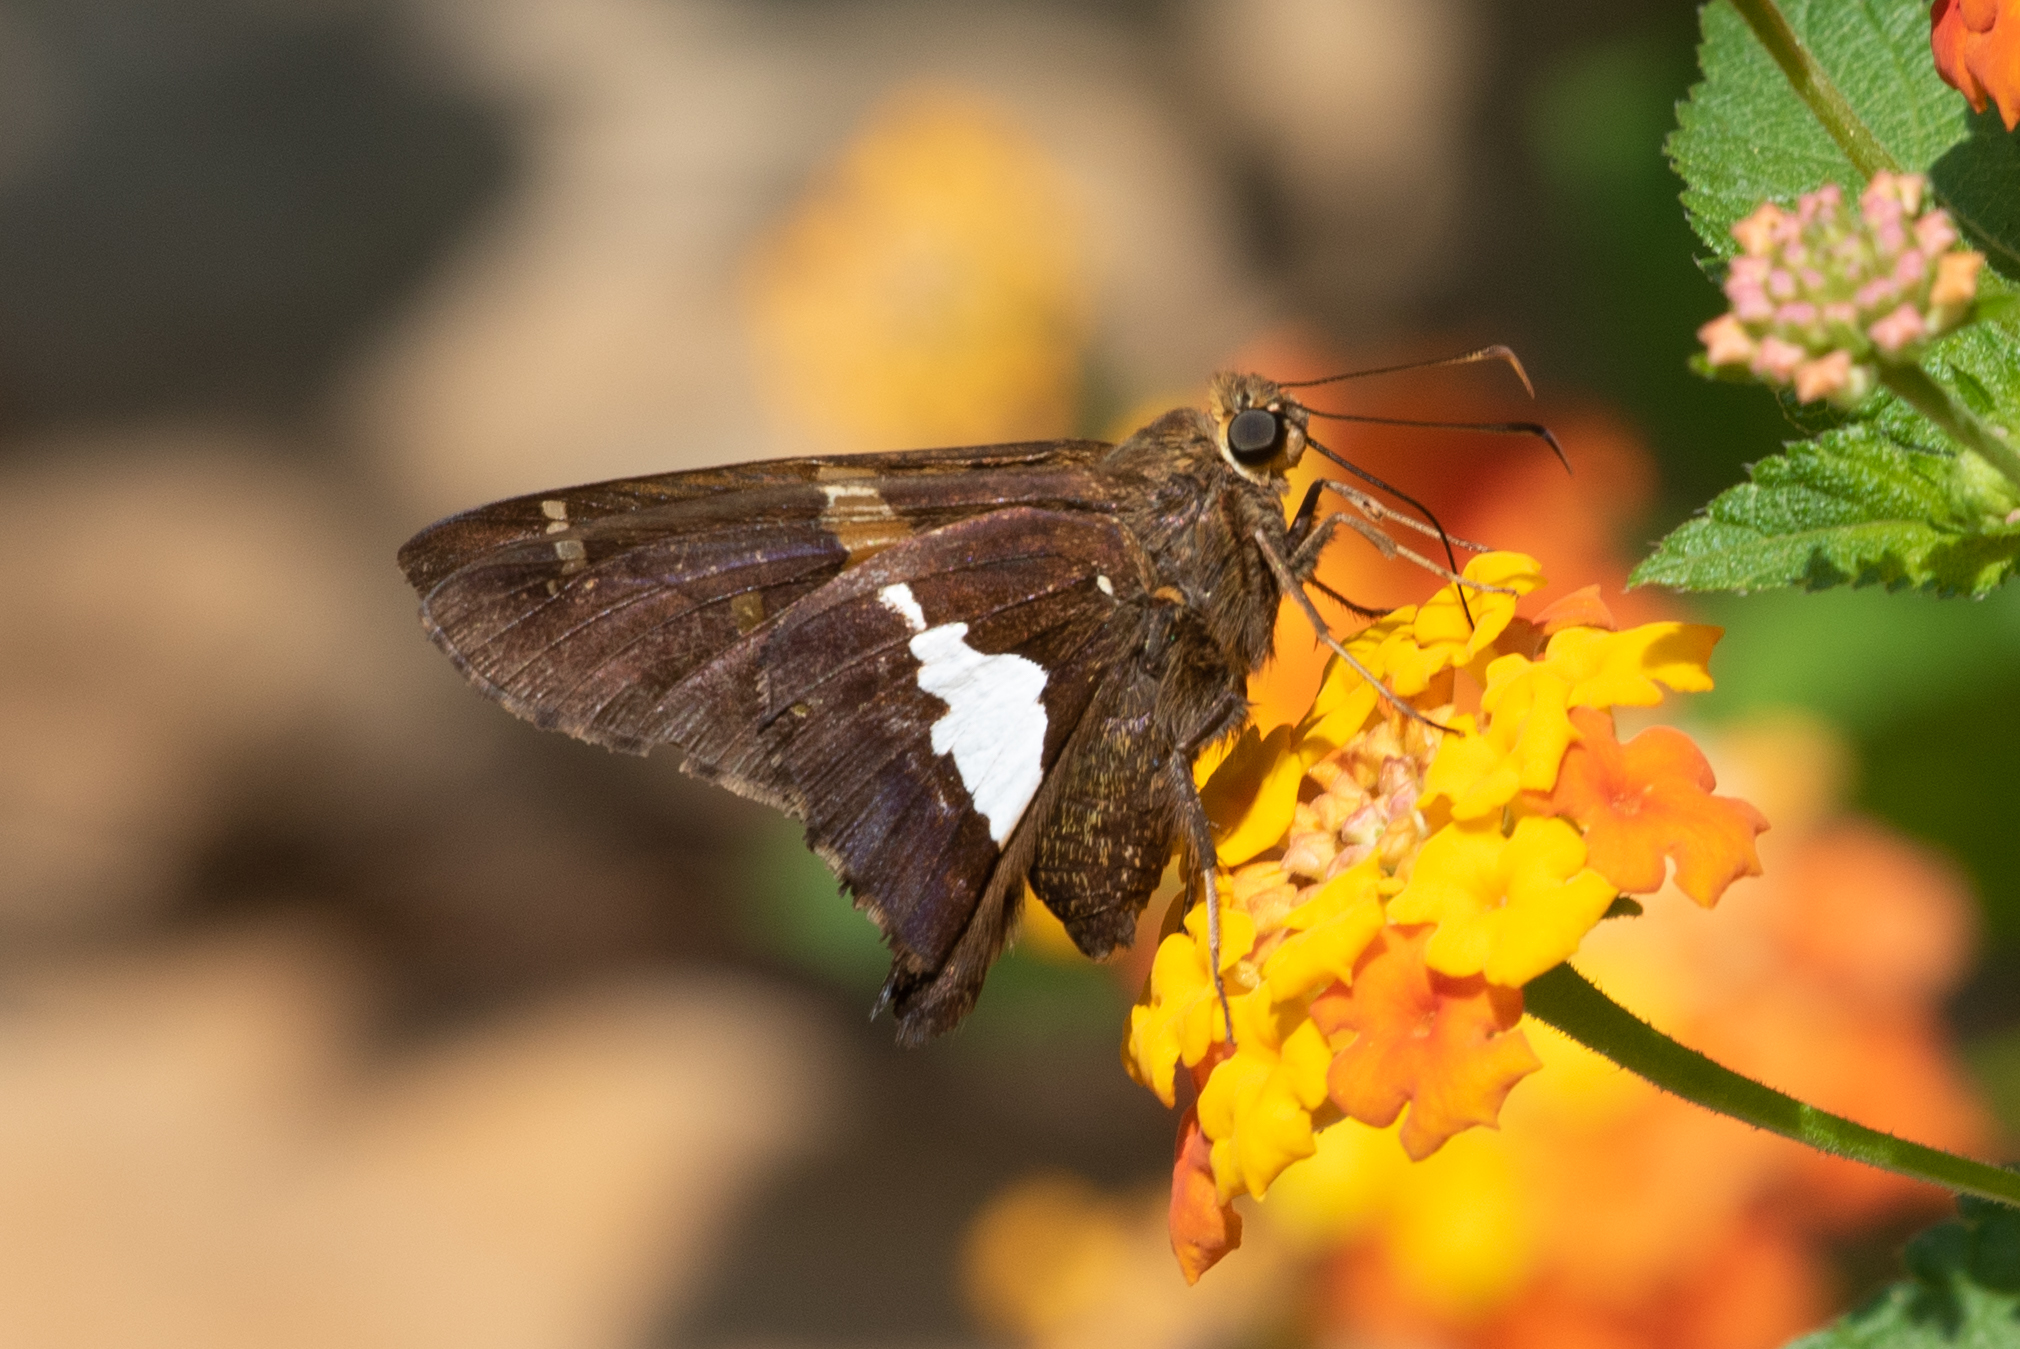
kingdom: Animalia
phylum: Arthropoda
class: Insecta
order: Lepidoptera
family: Hesperiidae
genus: Epargyreus
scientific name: Epargyreus clarus
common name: Silver-spotted skipper
